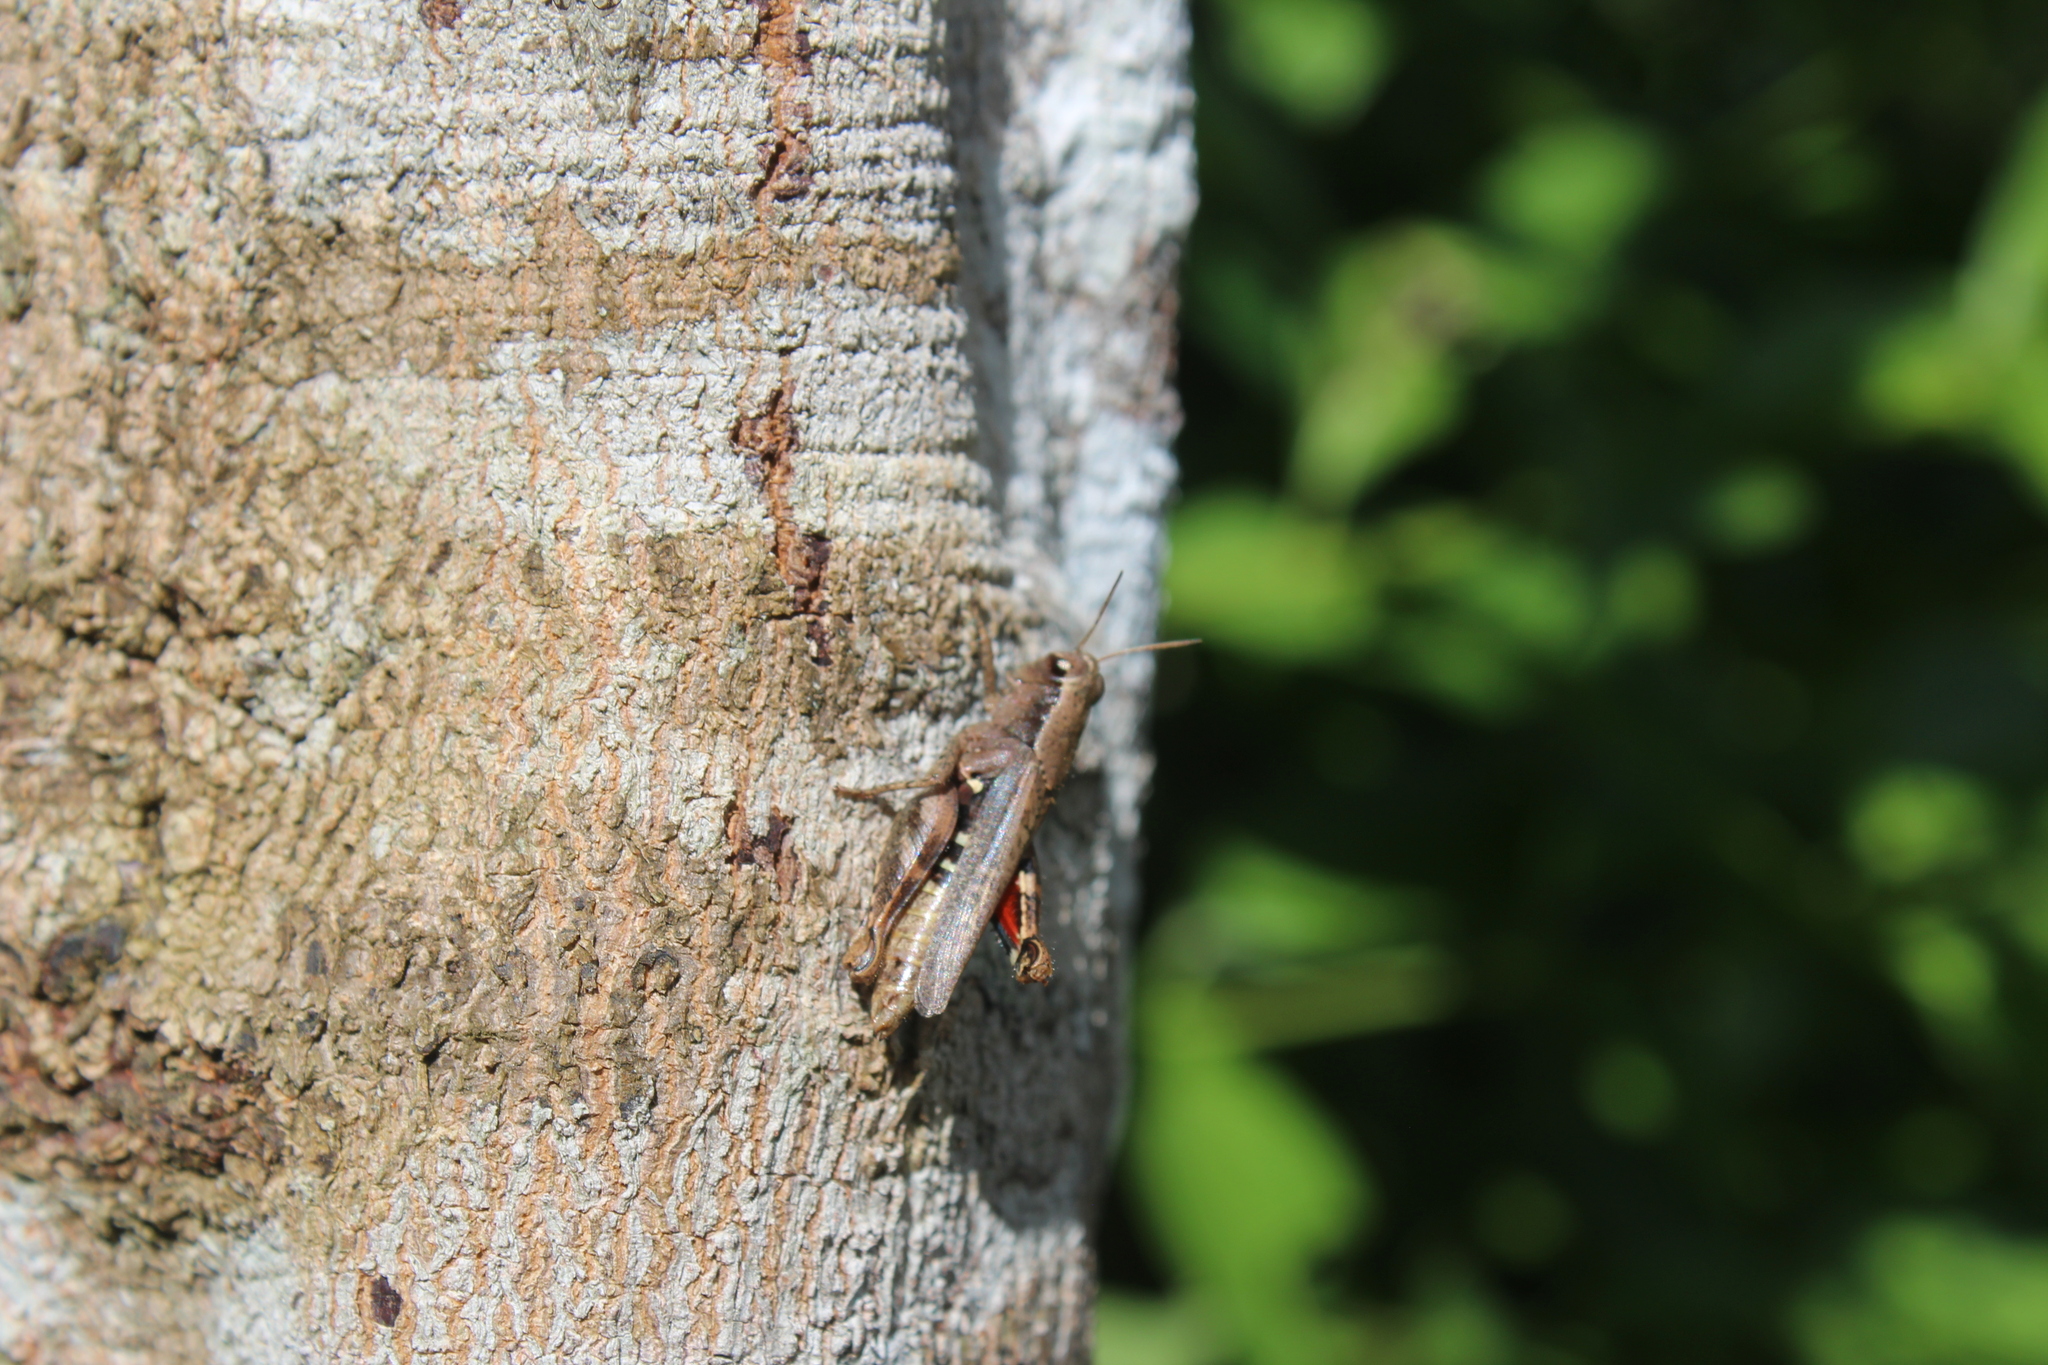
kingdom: Animalia
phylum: Arthropoda
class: Insecta
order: Orthoptera
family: Acrididae
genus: Aidemona
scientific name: Aidemona azteca
